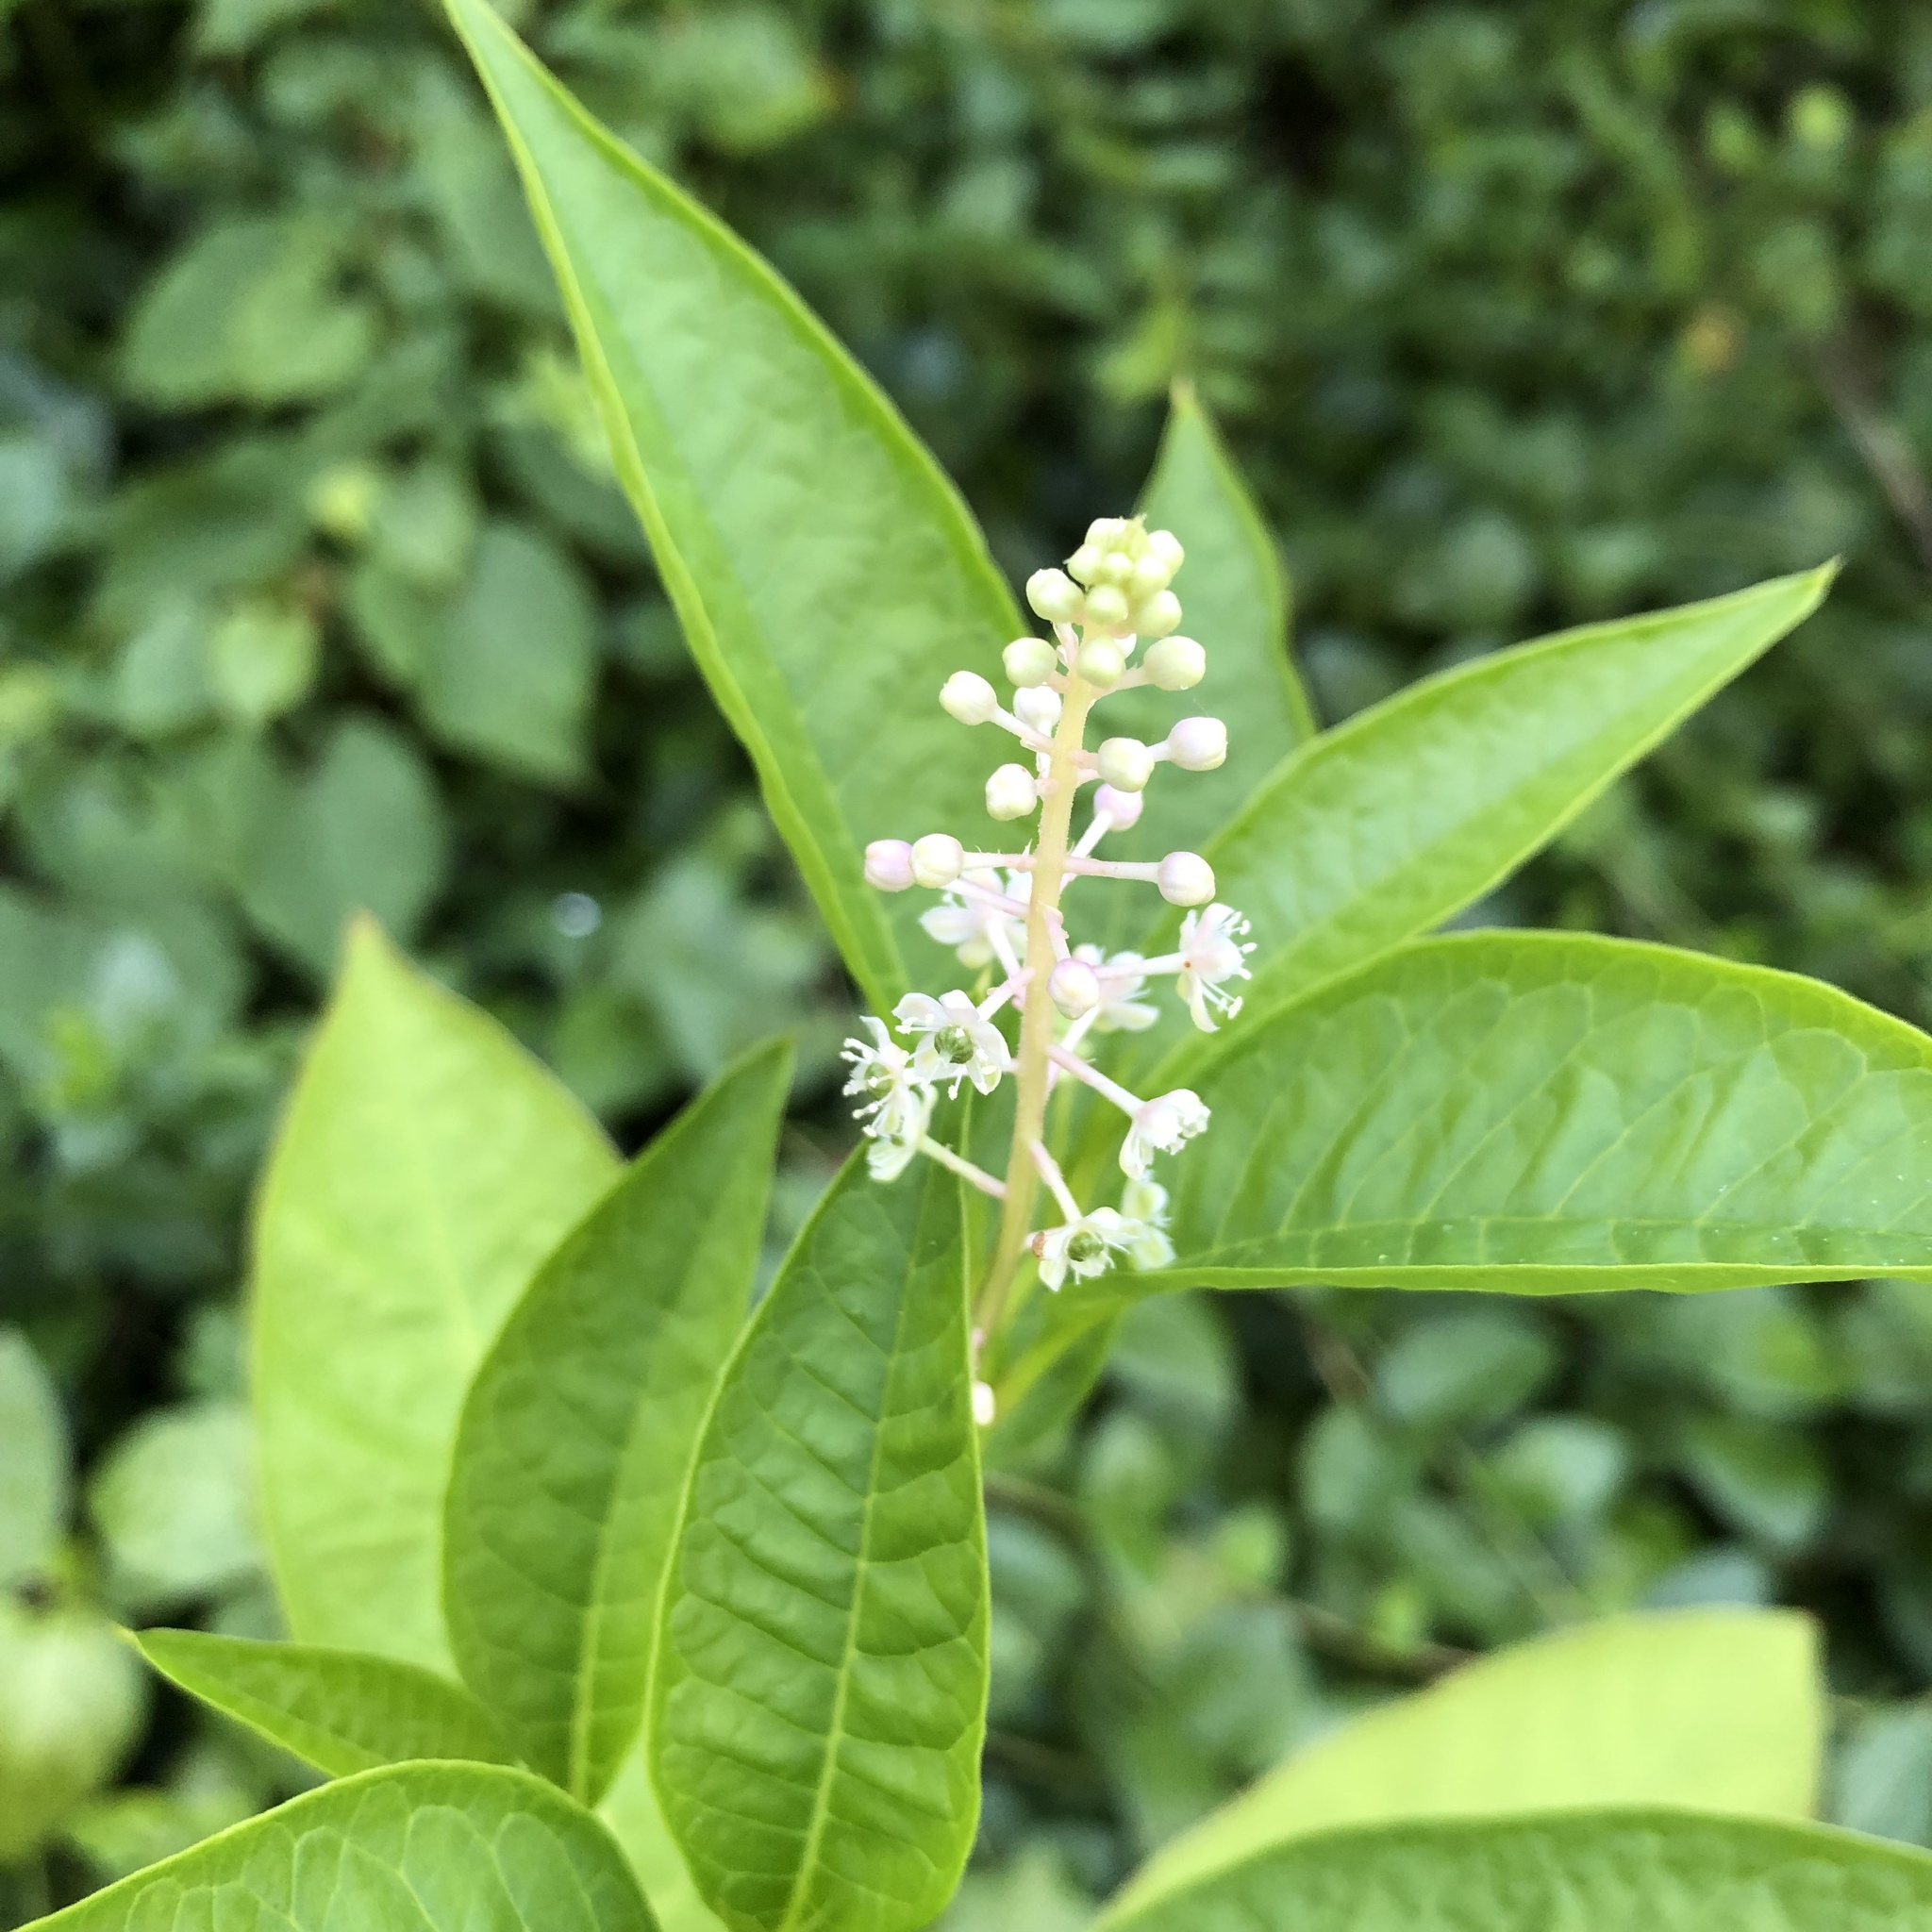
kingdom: Plantae
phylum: Tracheophyta
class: Magnoliopsida
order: Caryophyllales
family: Phytolaccaceae
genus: Phytolacca
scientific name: Phytolacca americana
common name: American pokeweed
